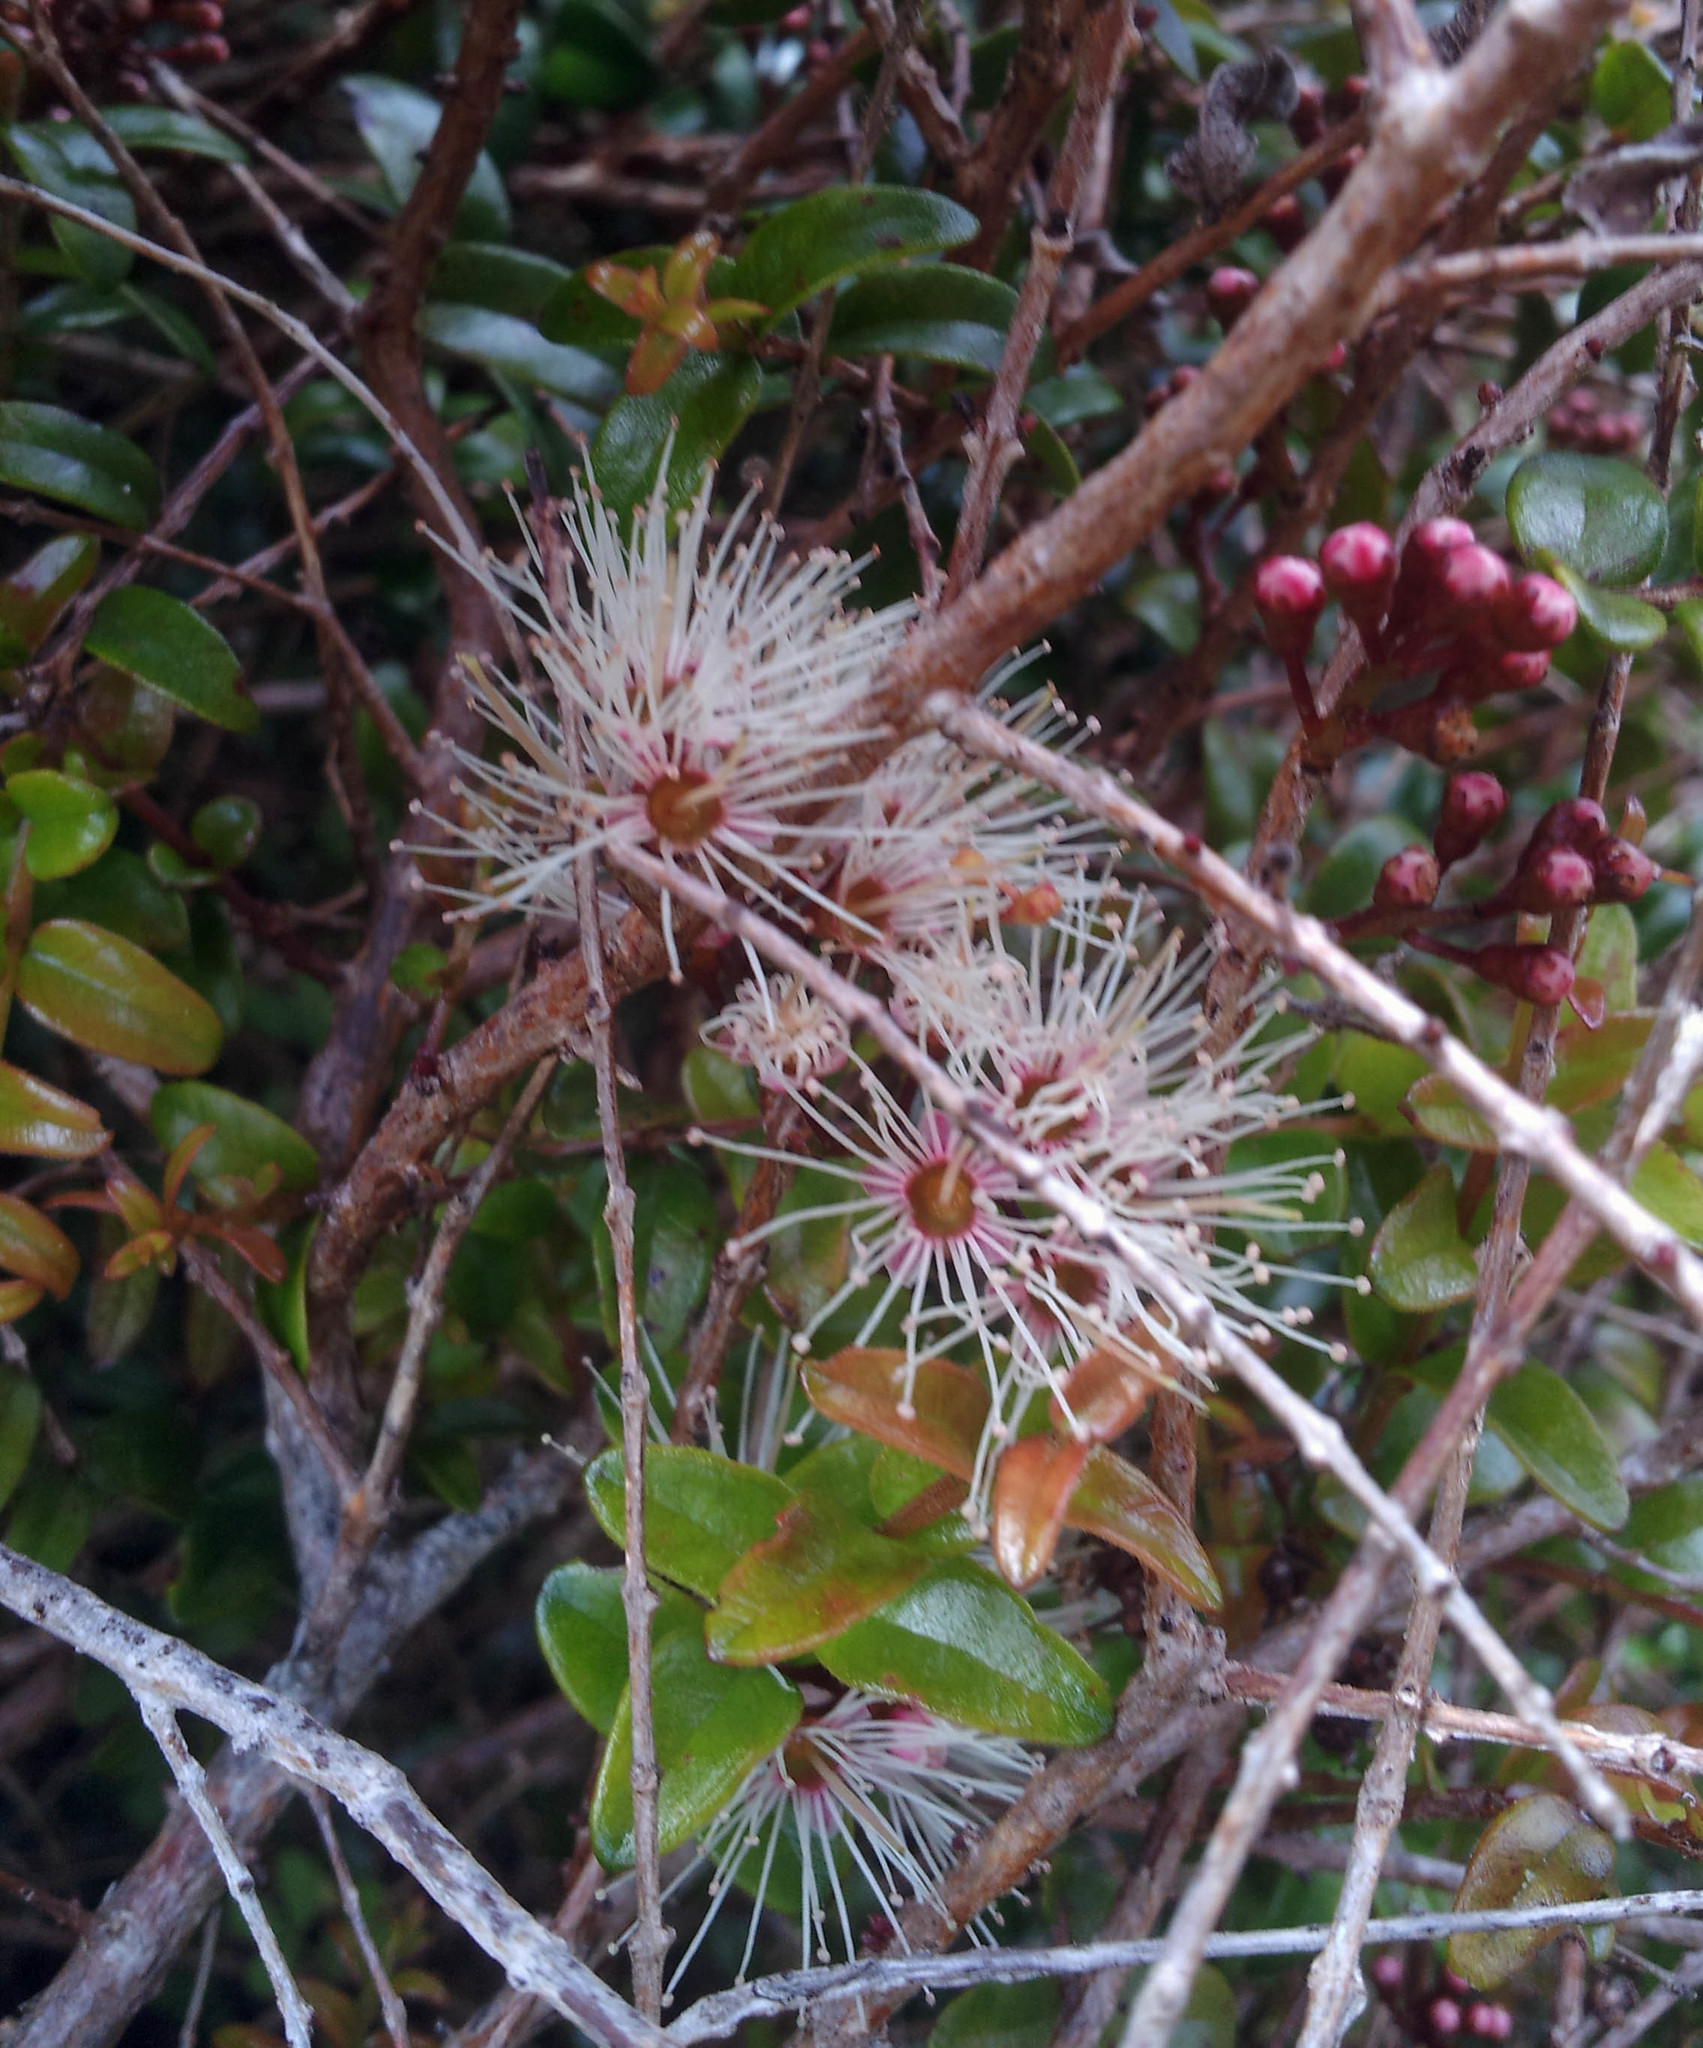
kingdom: Plantae
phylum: Tracheophyta
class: Magnoliopsida
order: Myrtales
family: Myrtaceae
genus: Metrosideros
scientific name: Metrosideros diffusa
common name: Small ratavine
